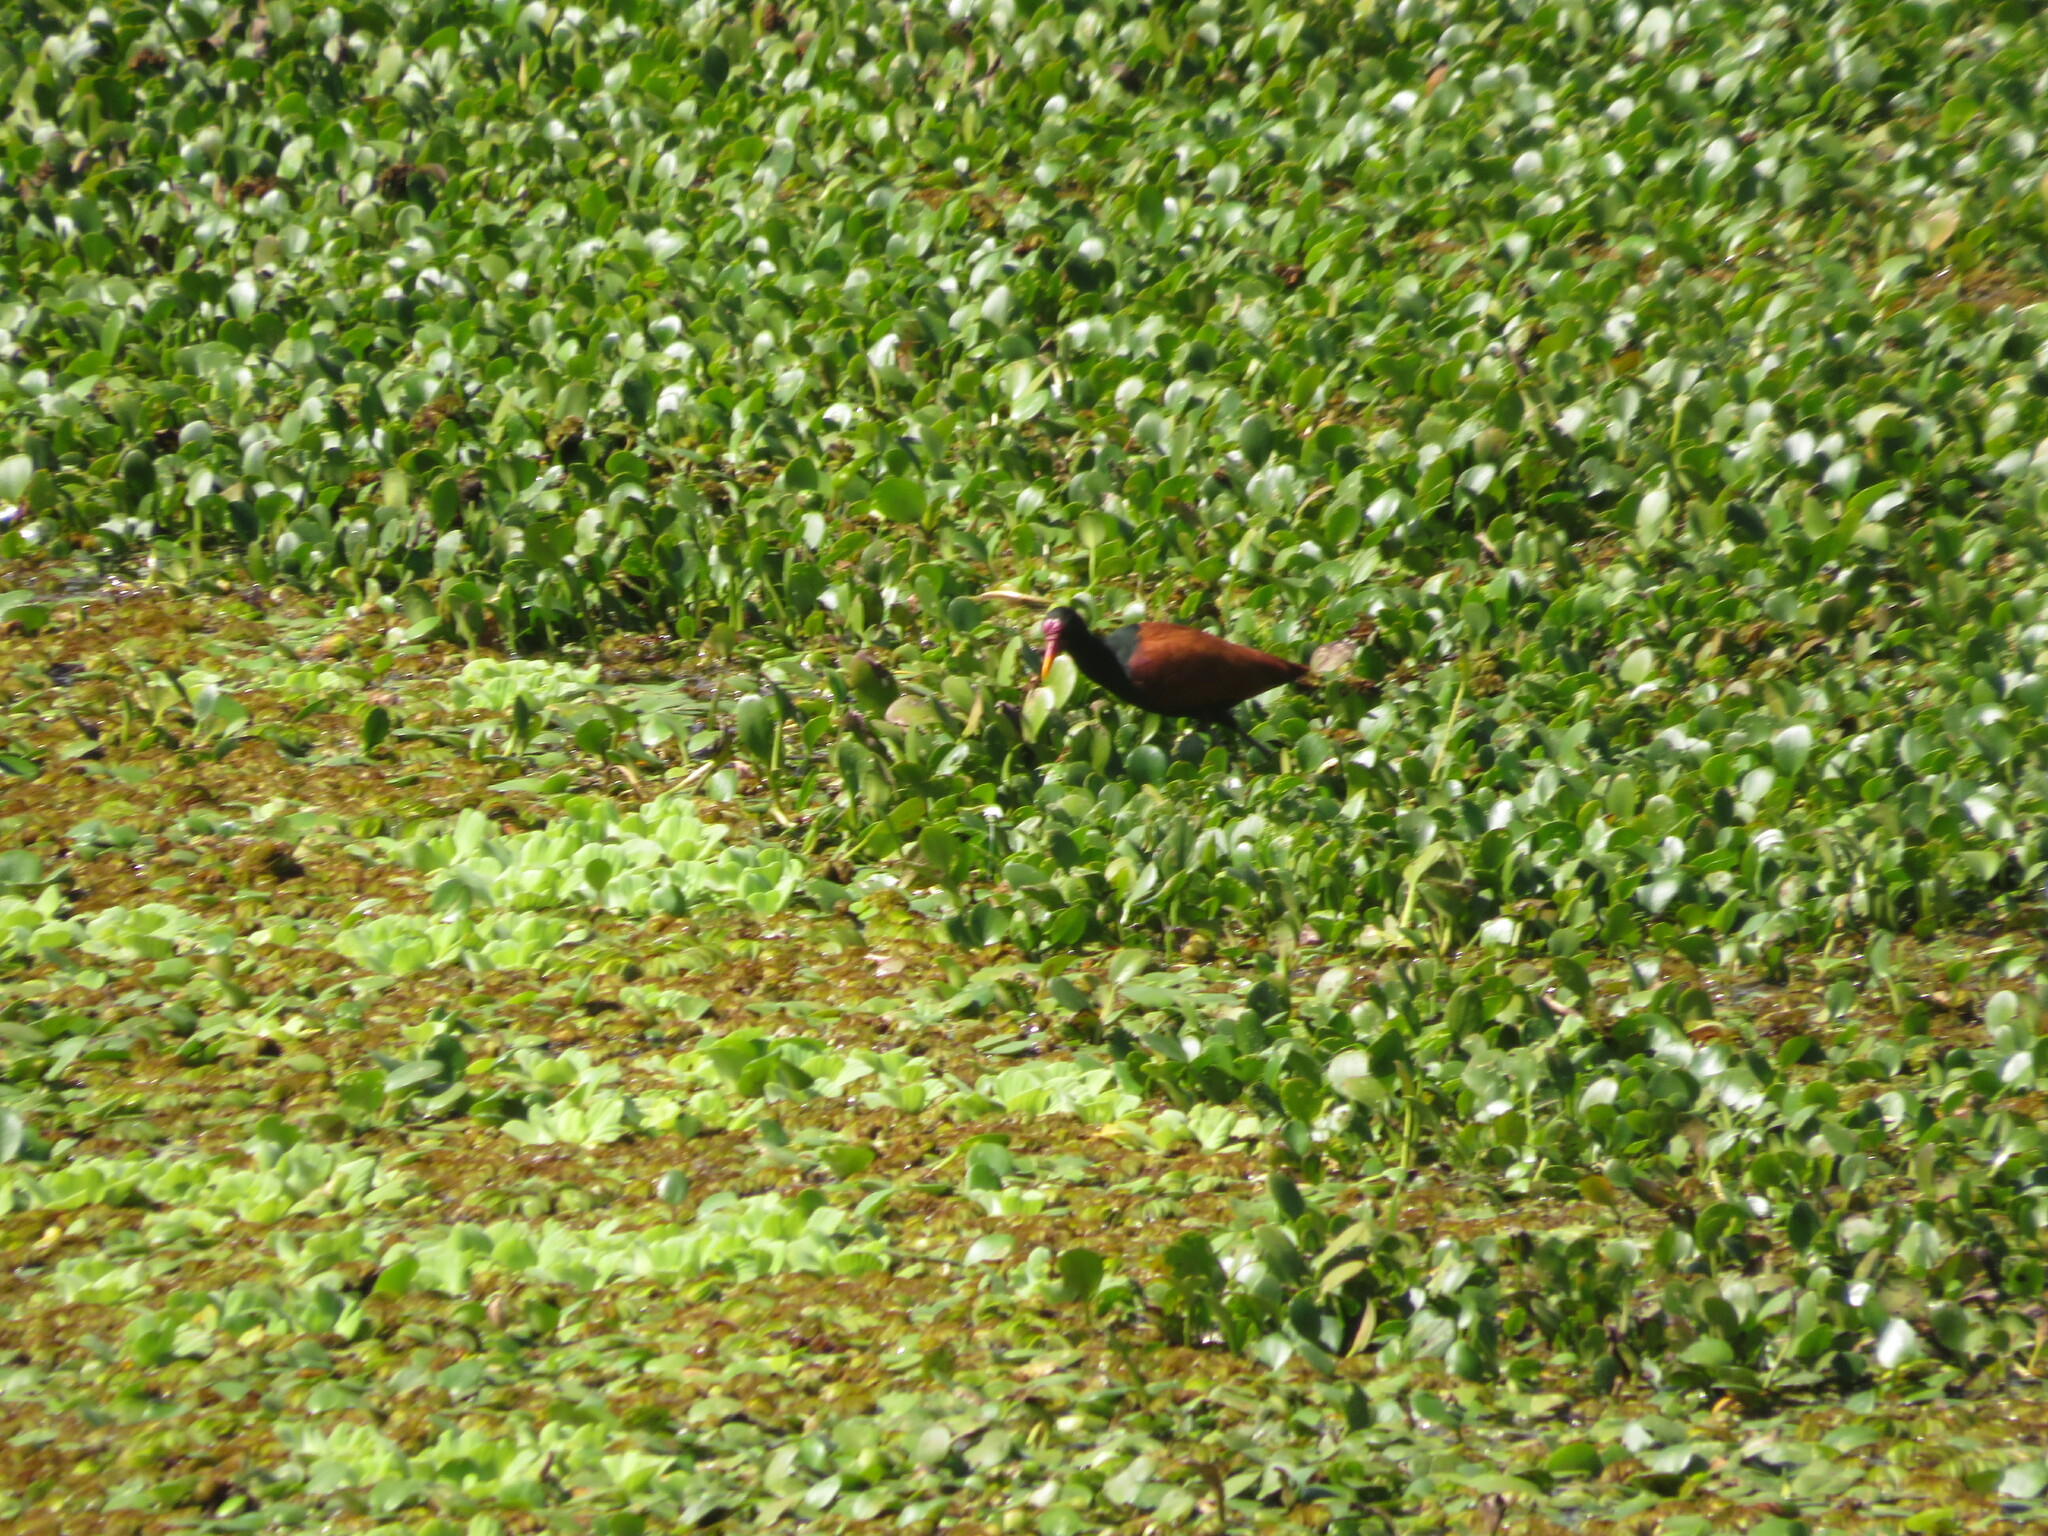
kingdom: Animalia
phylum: Chordata
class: Aves
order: Charadriiformes
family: Jacanidae
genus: Jacana
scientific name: Jacana jacana
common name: Wattled jacana
